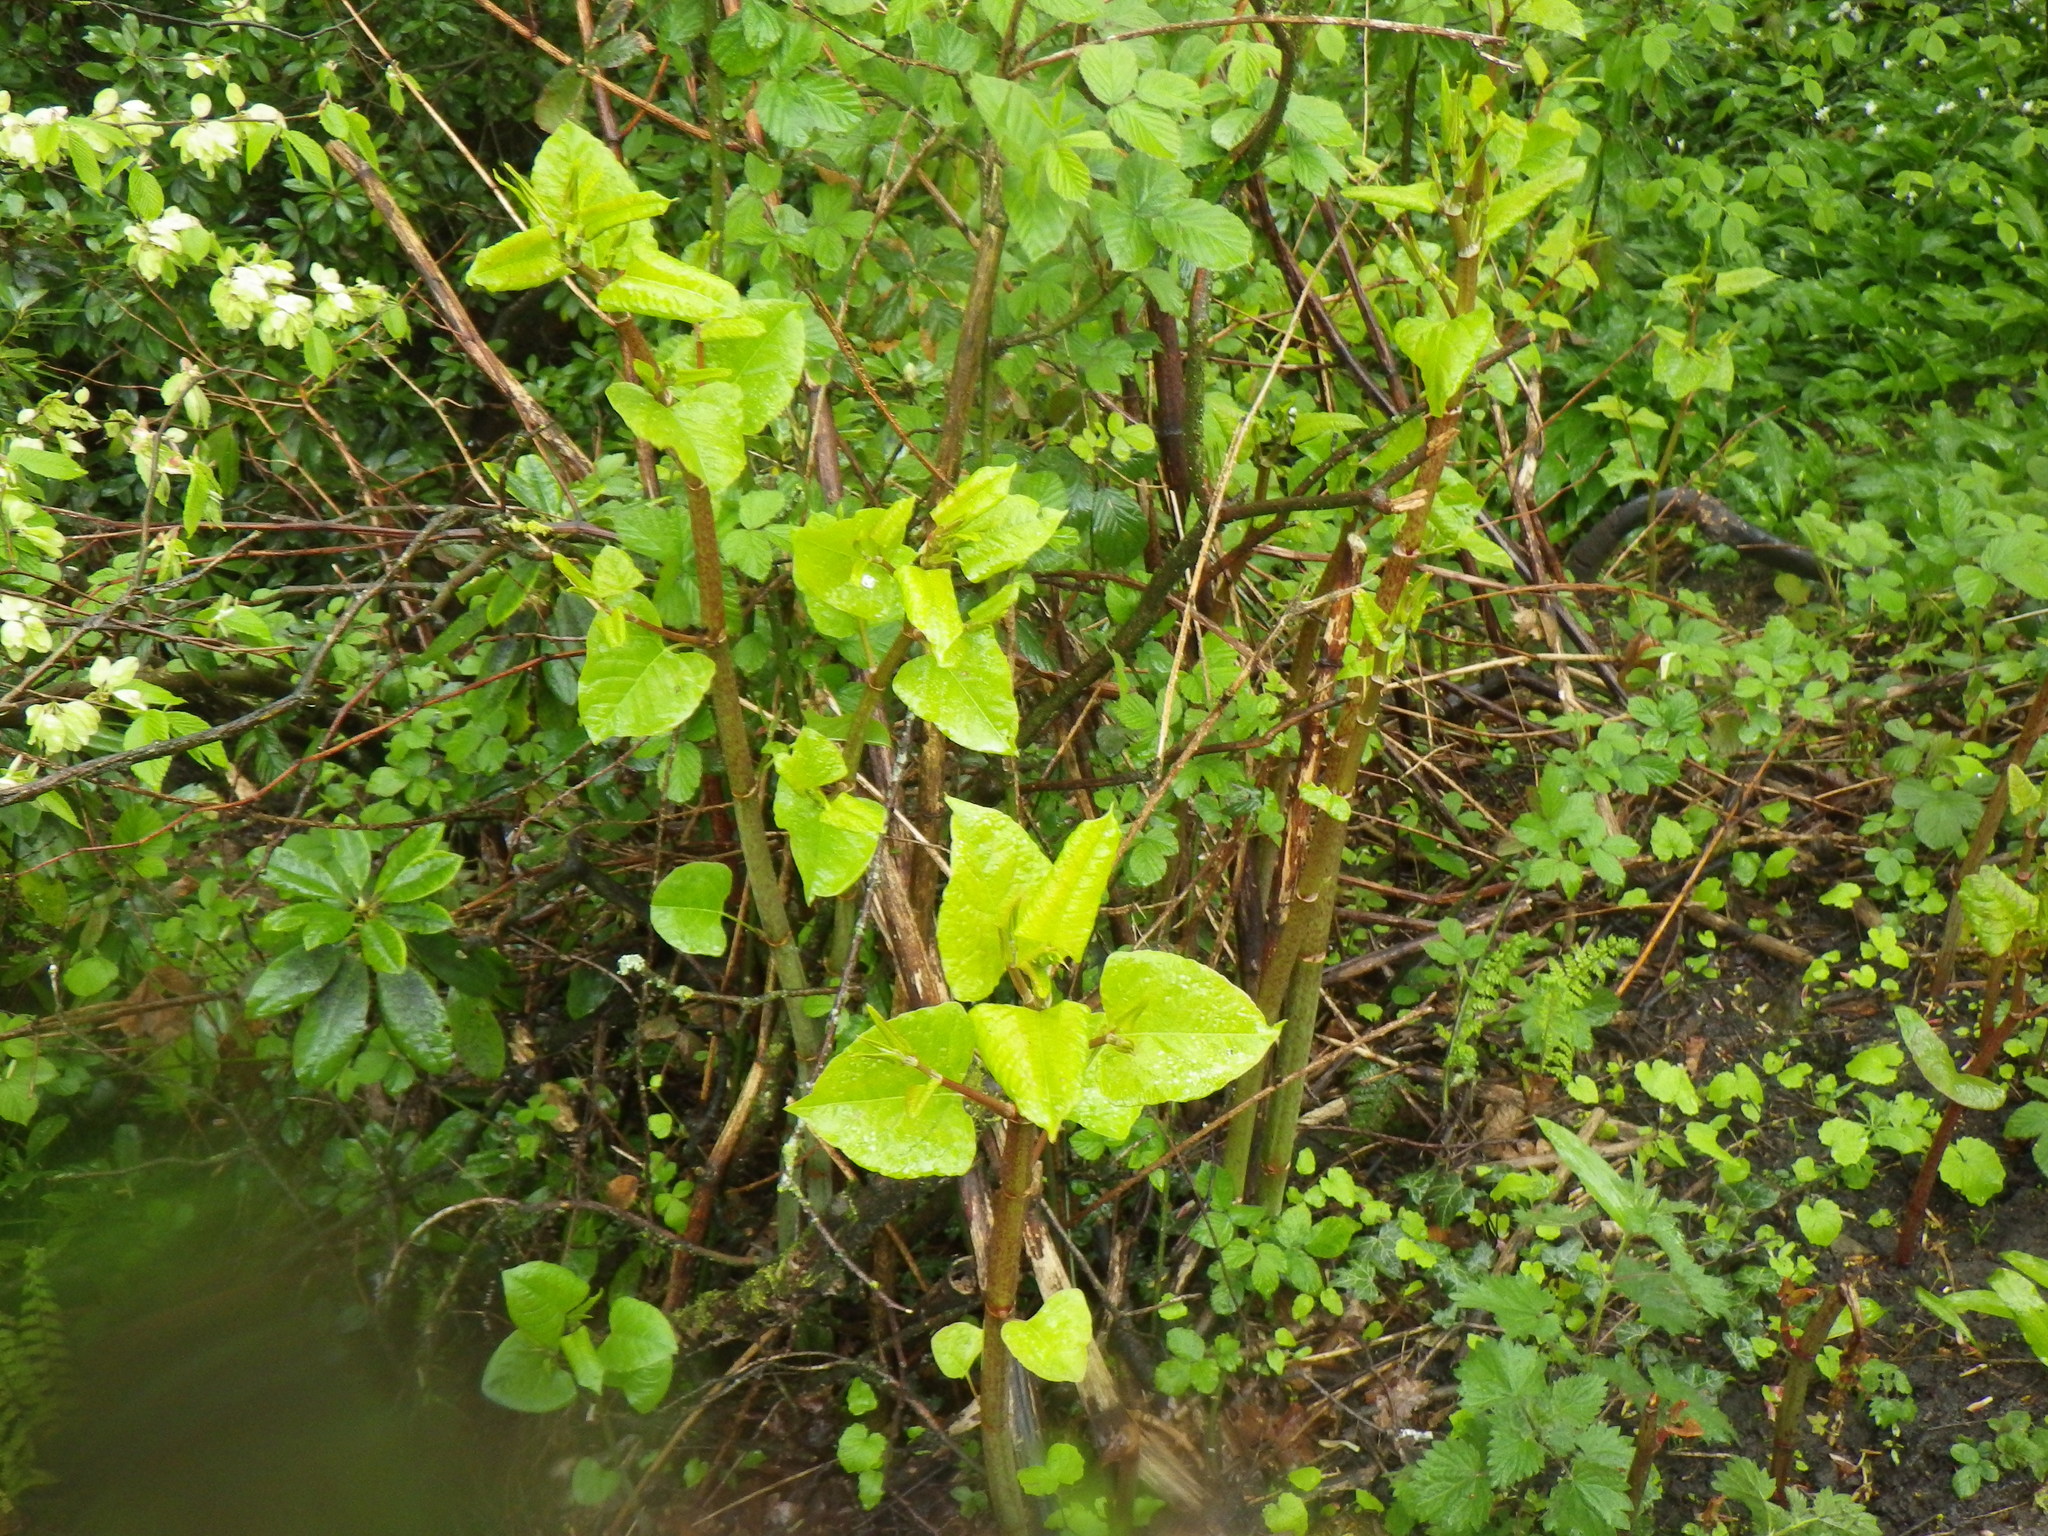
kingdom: Plantae
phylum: Tracheophyta
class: Magnoliopsida
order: Caryophyllales
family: Polygonaceae
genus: Reynoutria
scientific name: Reynoutria japonica
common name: Japanese knotweed
